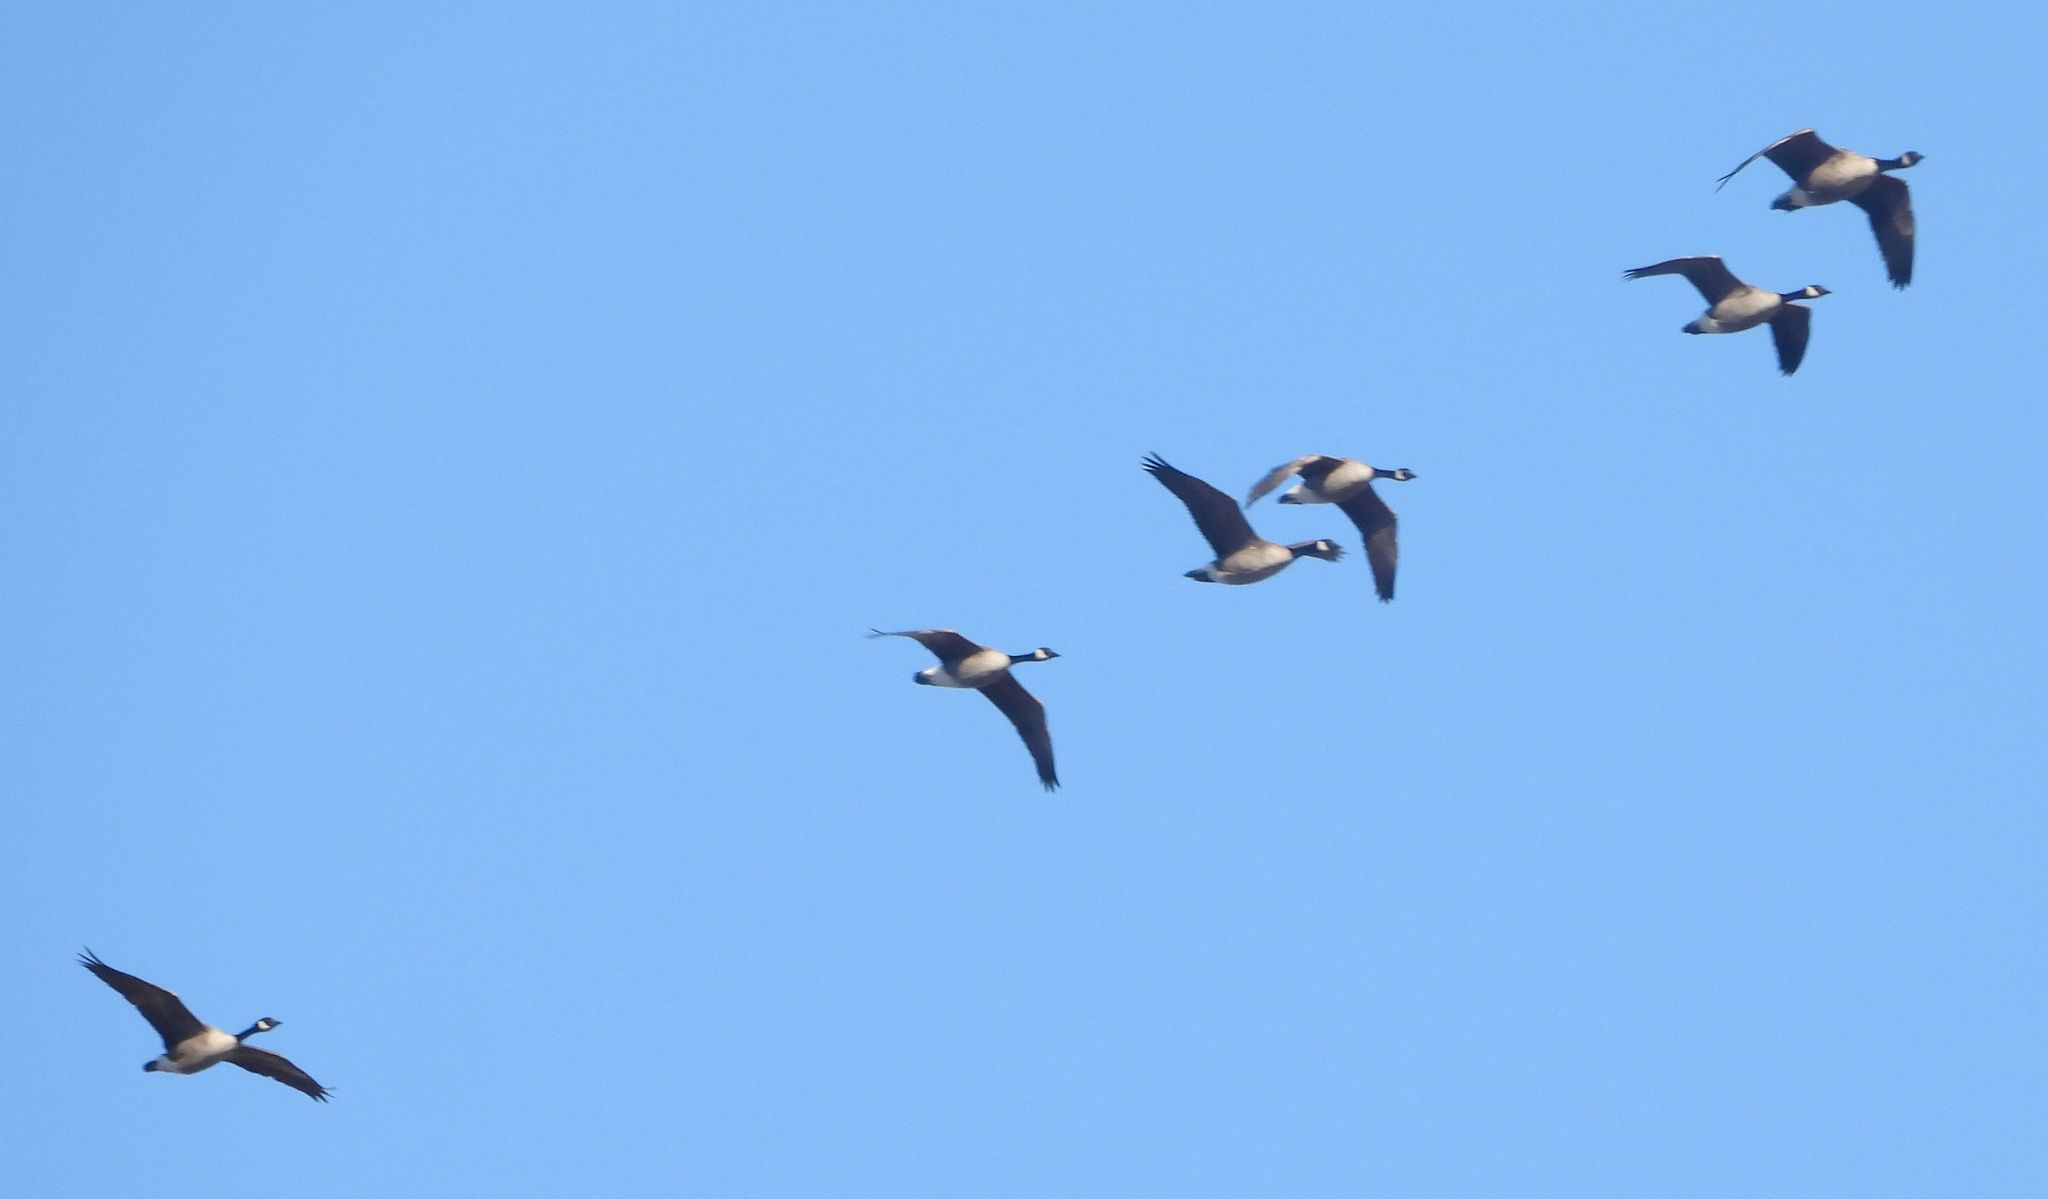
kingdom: Animalia
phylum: Chordata
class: Aves
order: Anseriformes
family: Anatidae
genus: Branta
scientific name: Branta canadensis
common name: Canada goose
